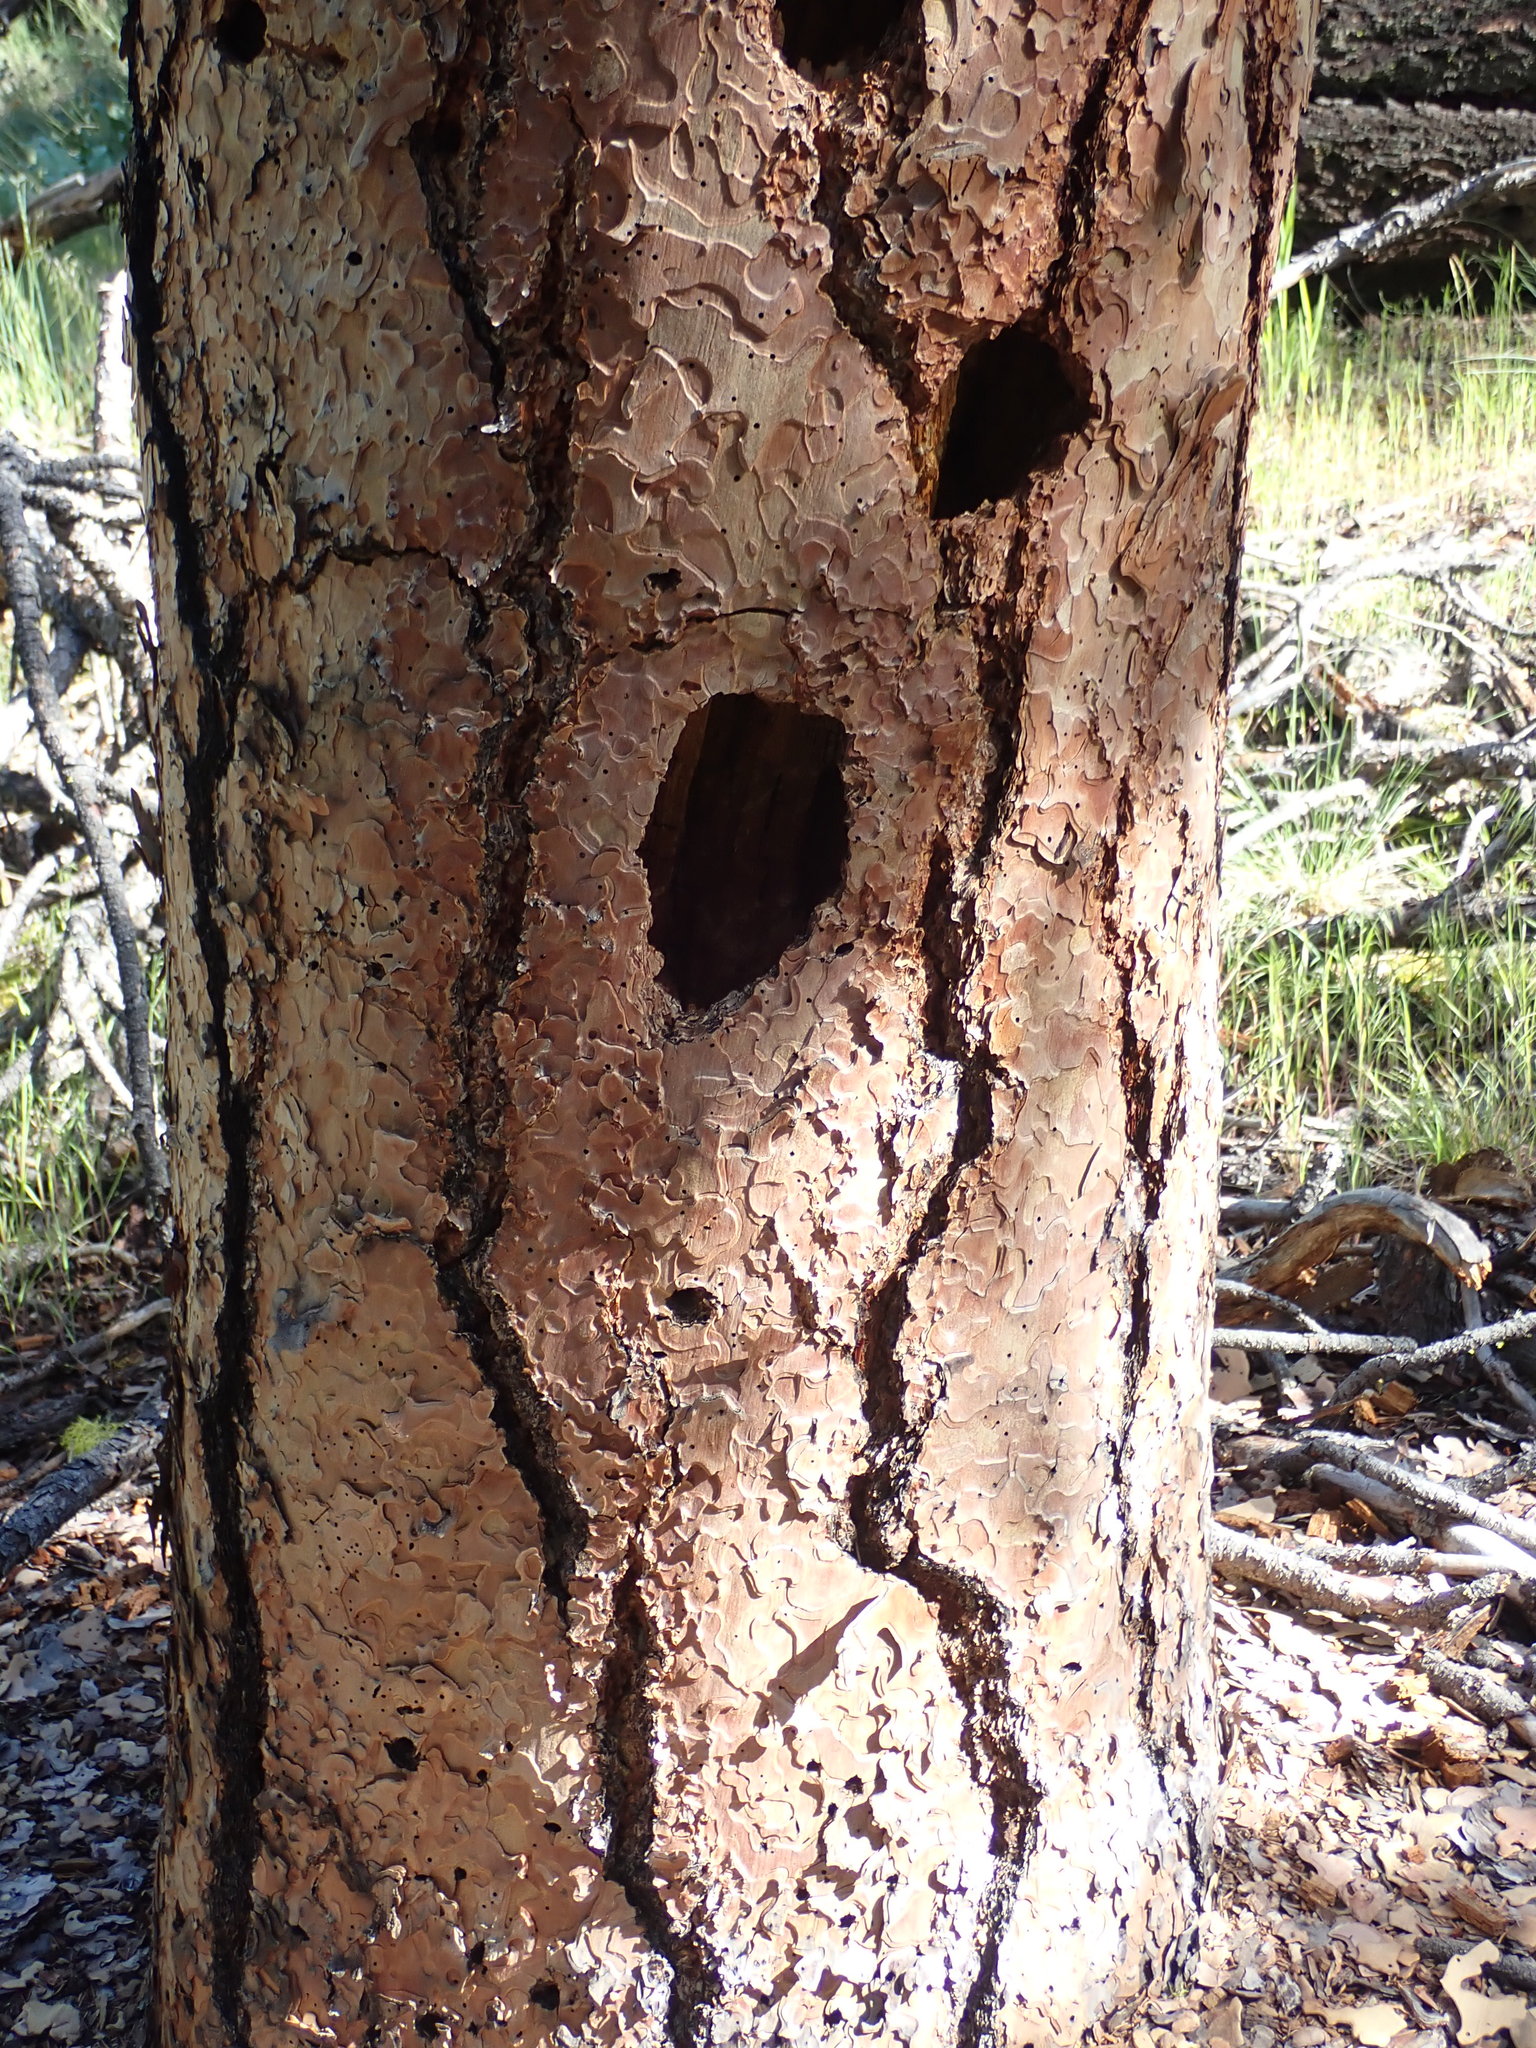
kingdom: Plantae
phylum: Tracheophyta
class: Pinopsida
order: Pinales
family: Pinaceae
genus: Pinus
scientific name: Pinus ponderosa
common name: Western yellow-pine
